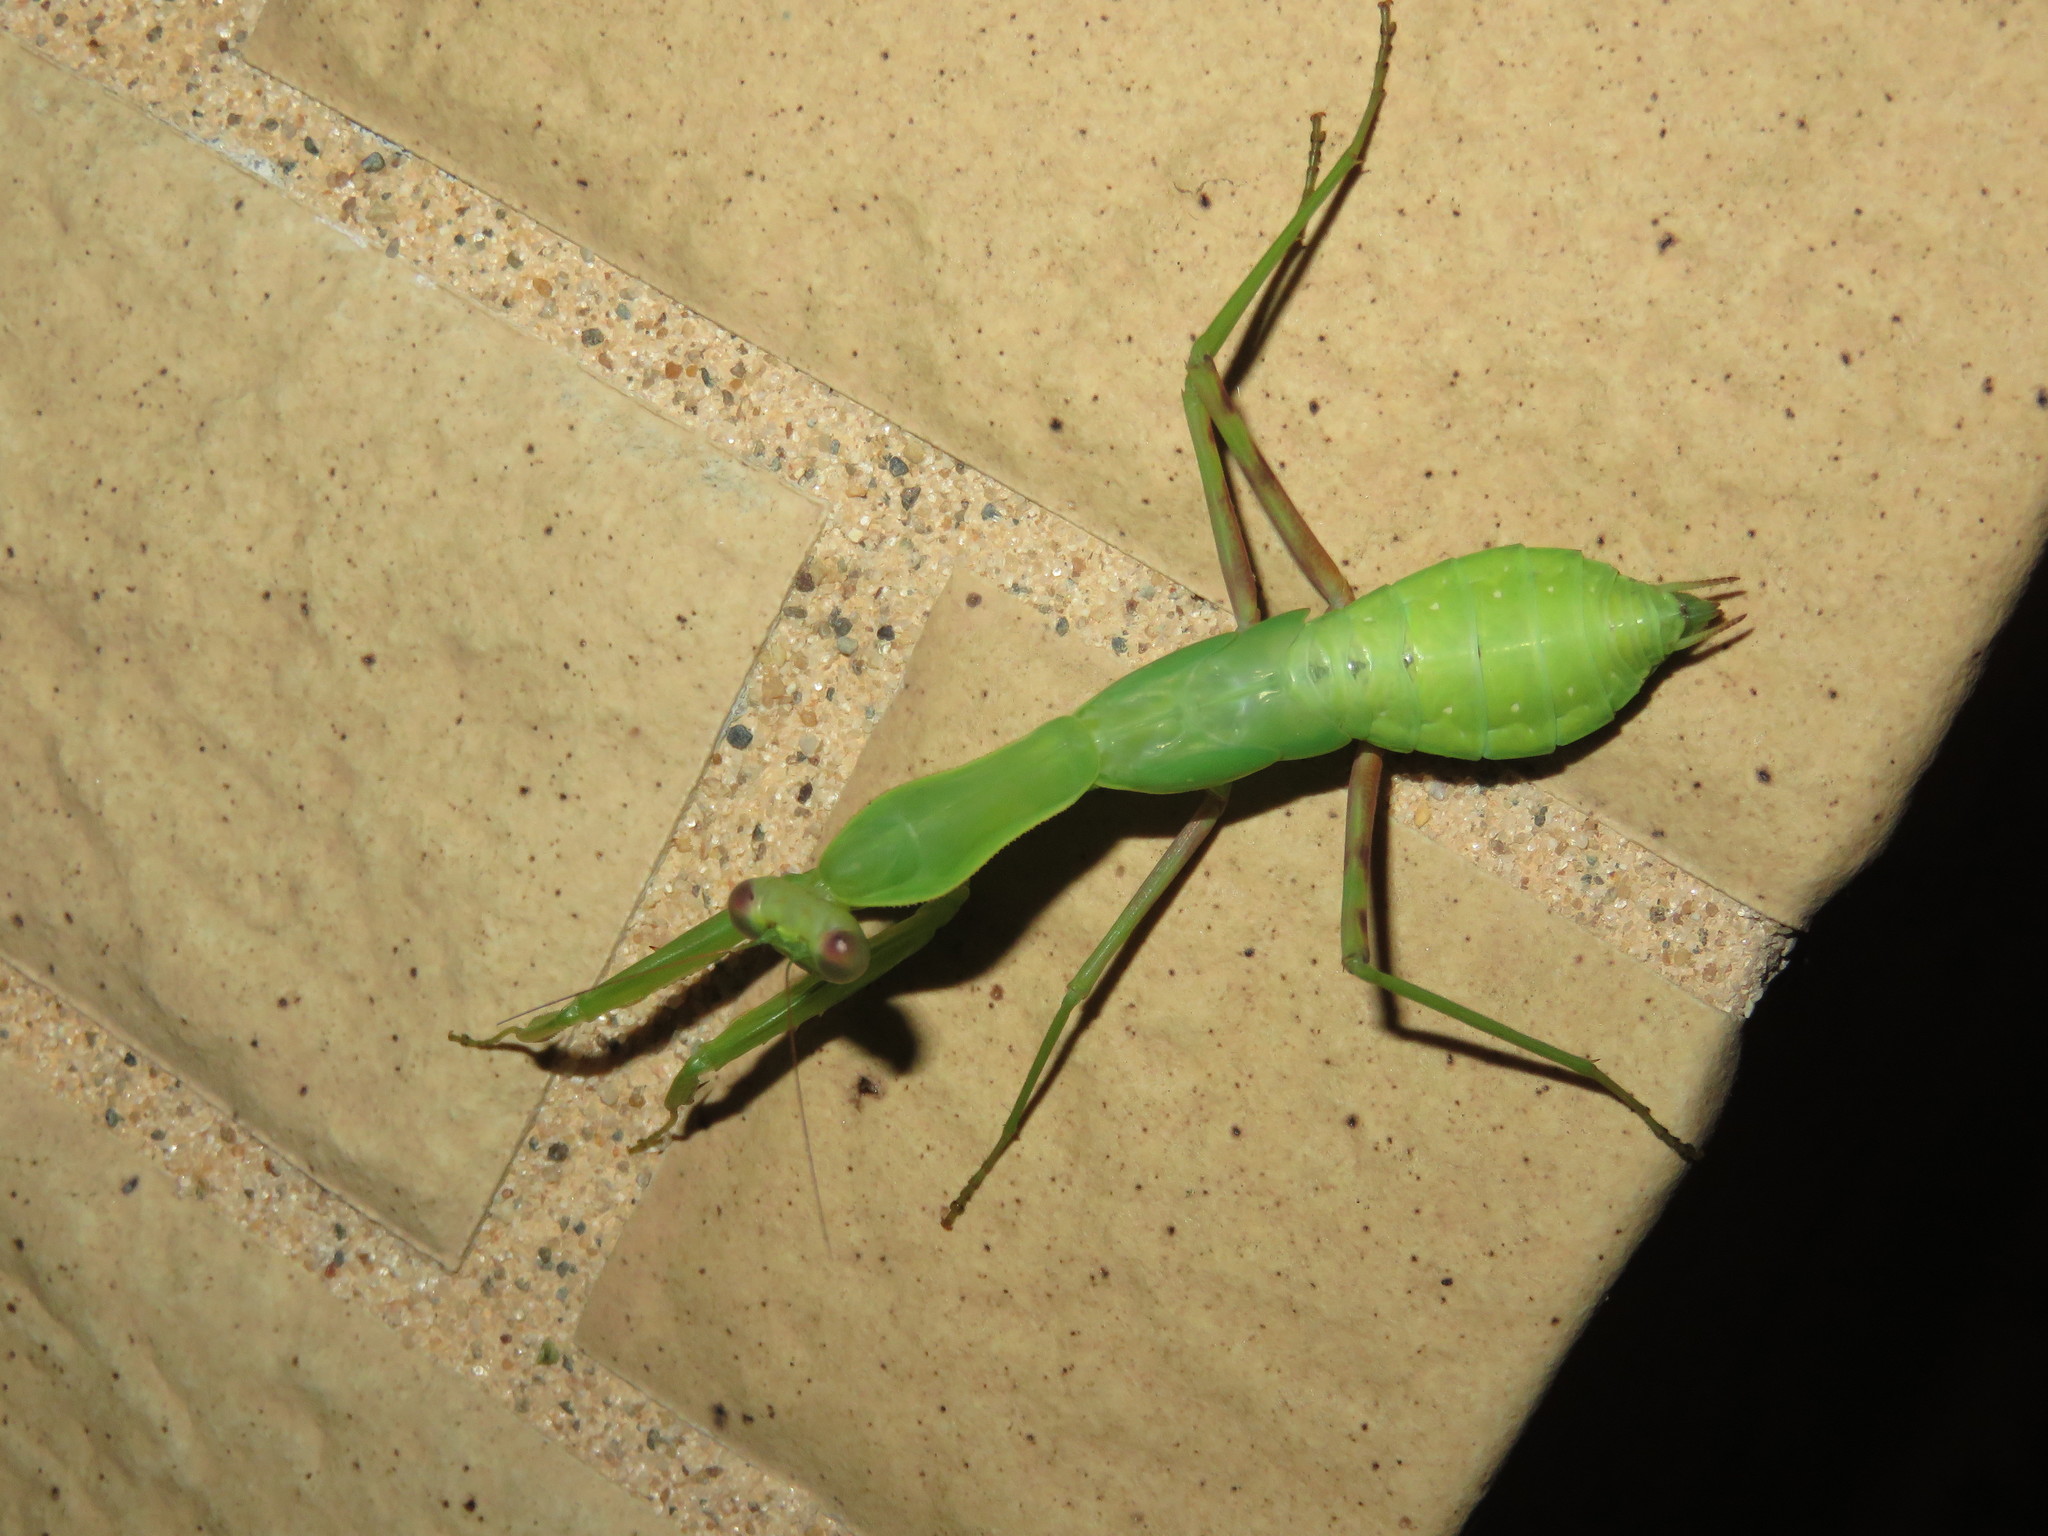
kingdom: Animalia
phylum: Arthropoda
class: Insecta
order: Mantodea
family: Mantidae
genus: Hierodula
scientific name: Hierodula patellifera
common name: Asian mantis
